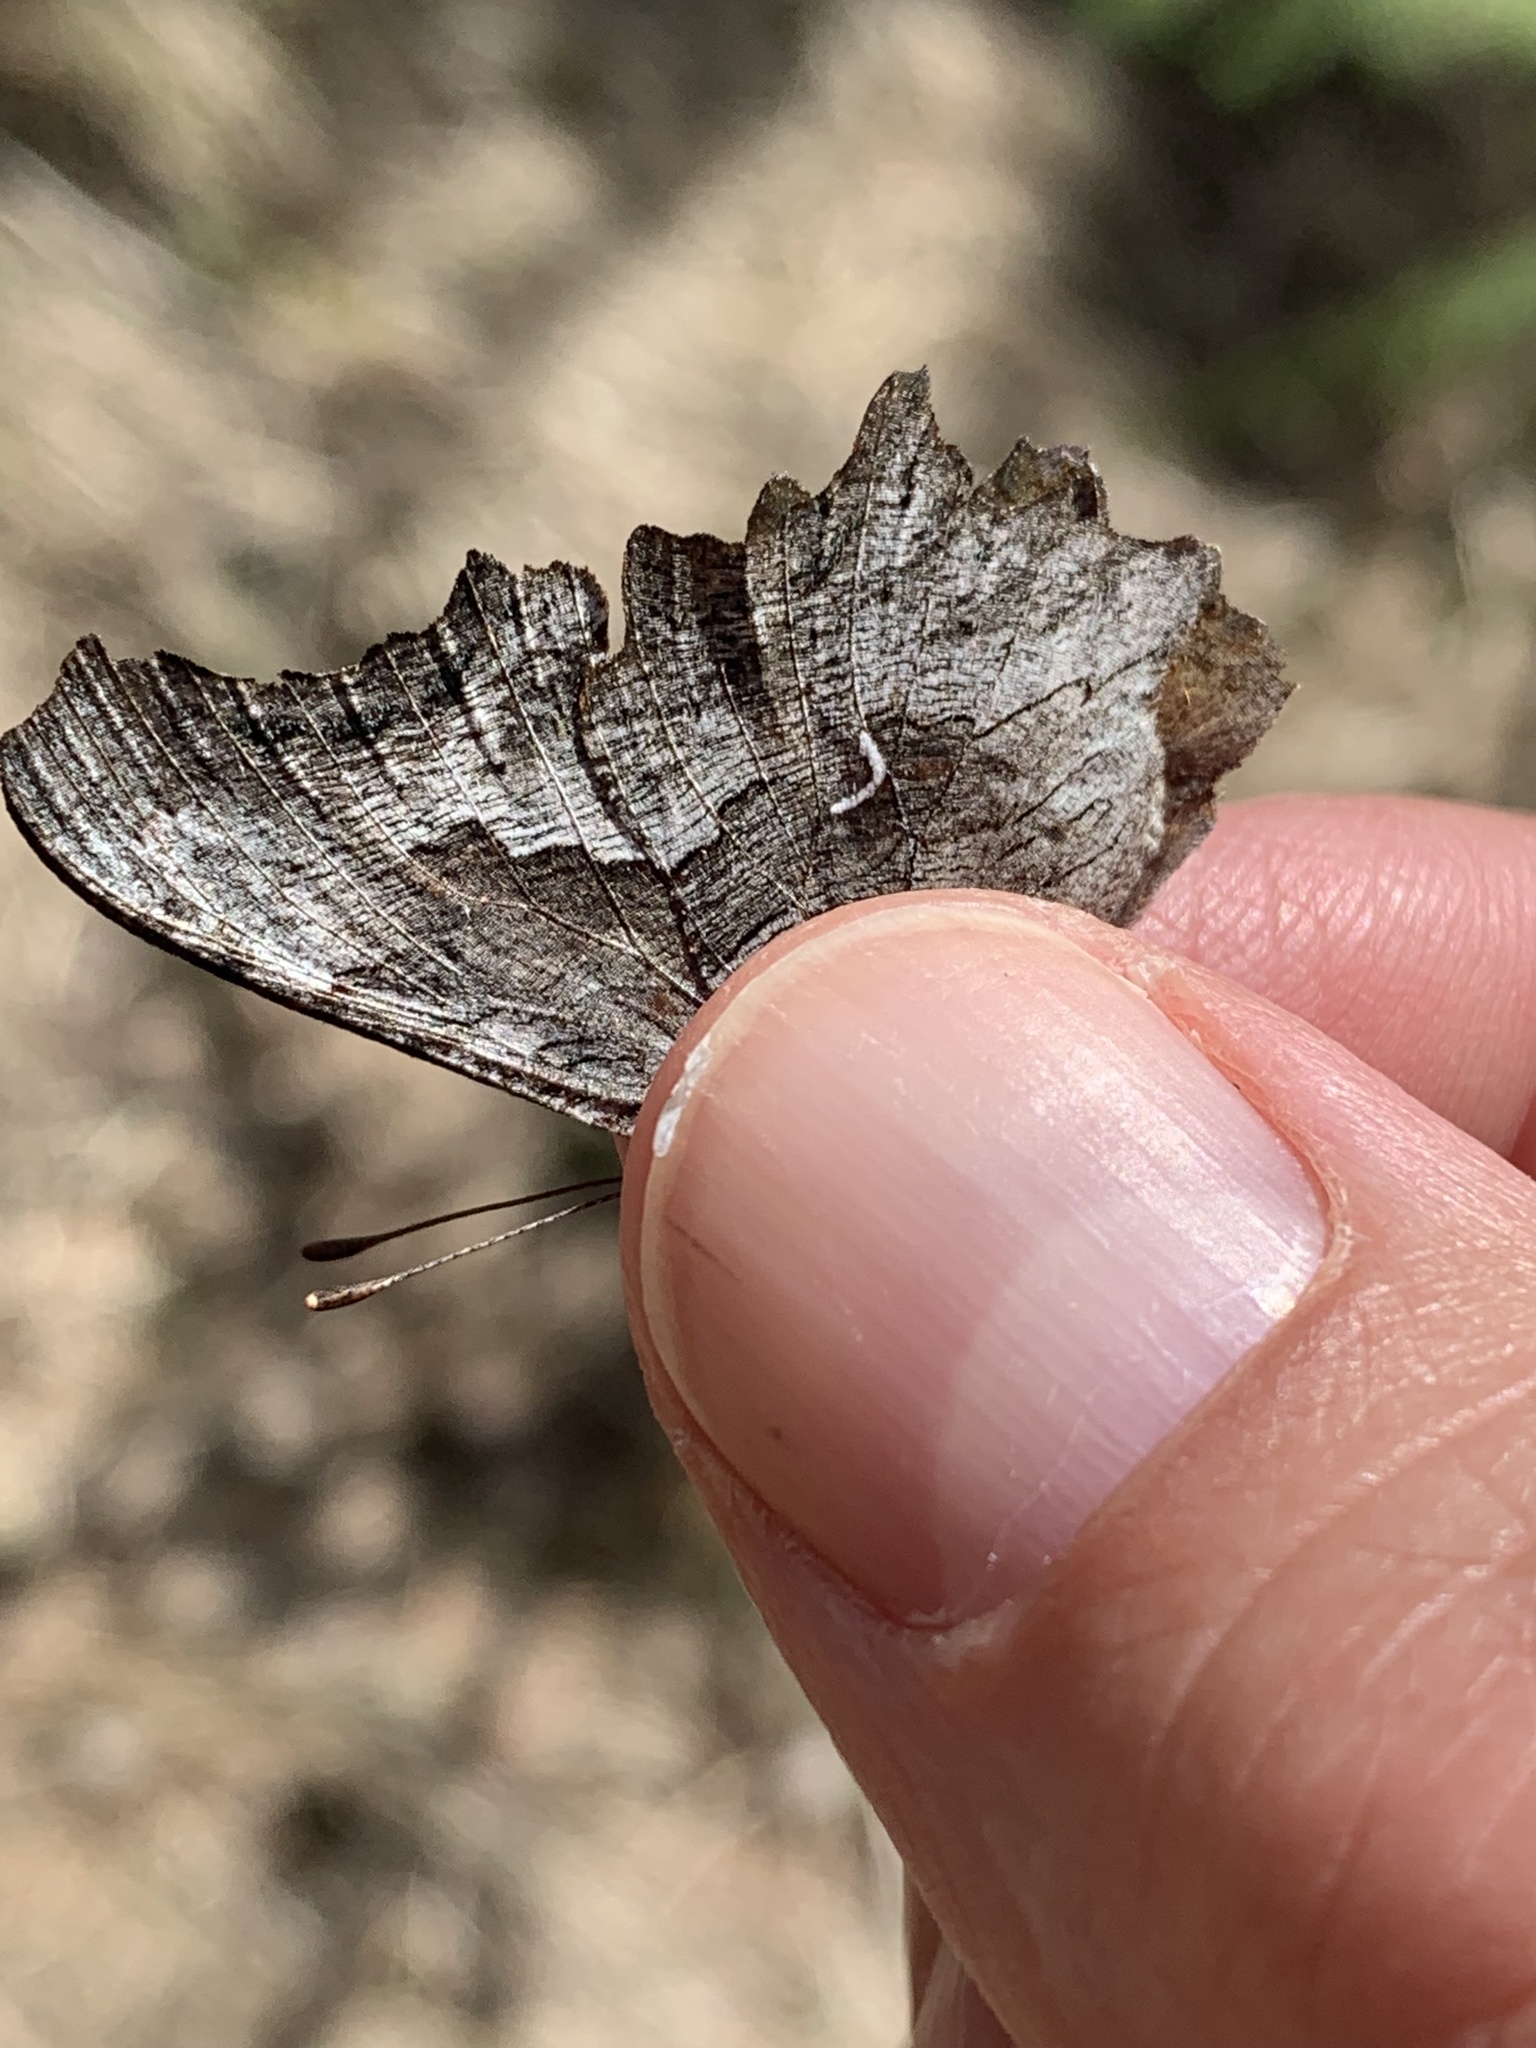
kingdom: Animalia
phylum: Arthropoda
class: Insecta
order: Lepidoptera
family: Nymphalidae
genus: Polygonia
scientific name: Polygonia gracilis
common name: Hoary comma
